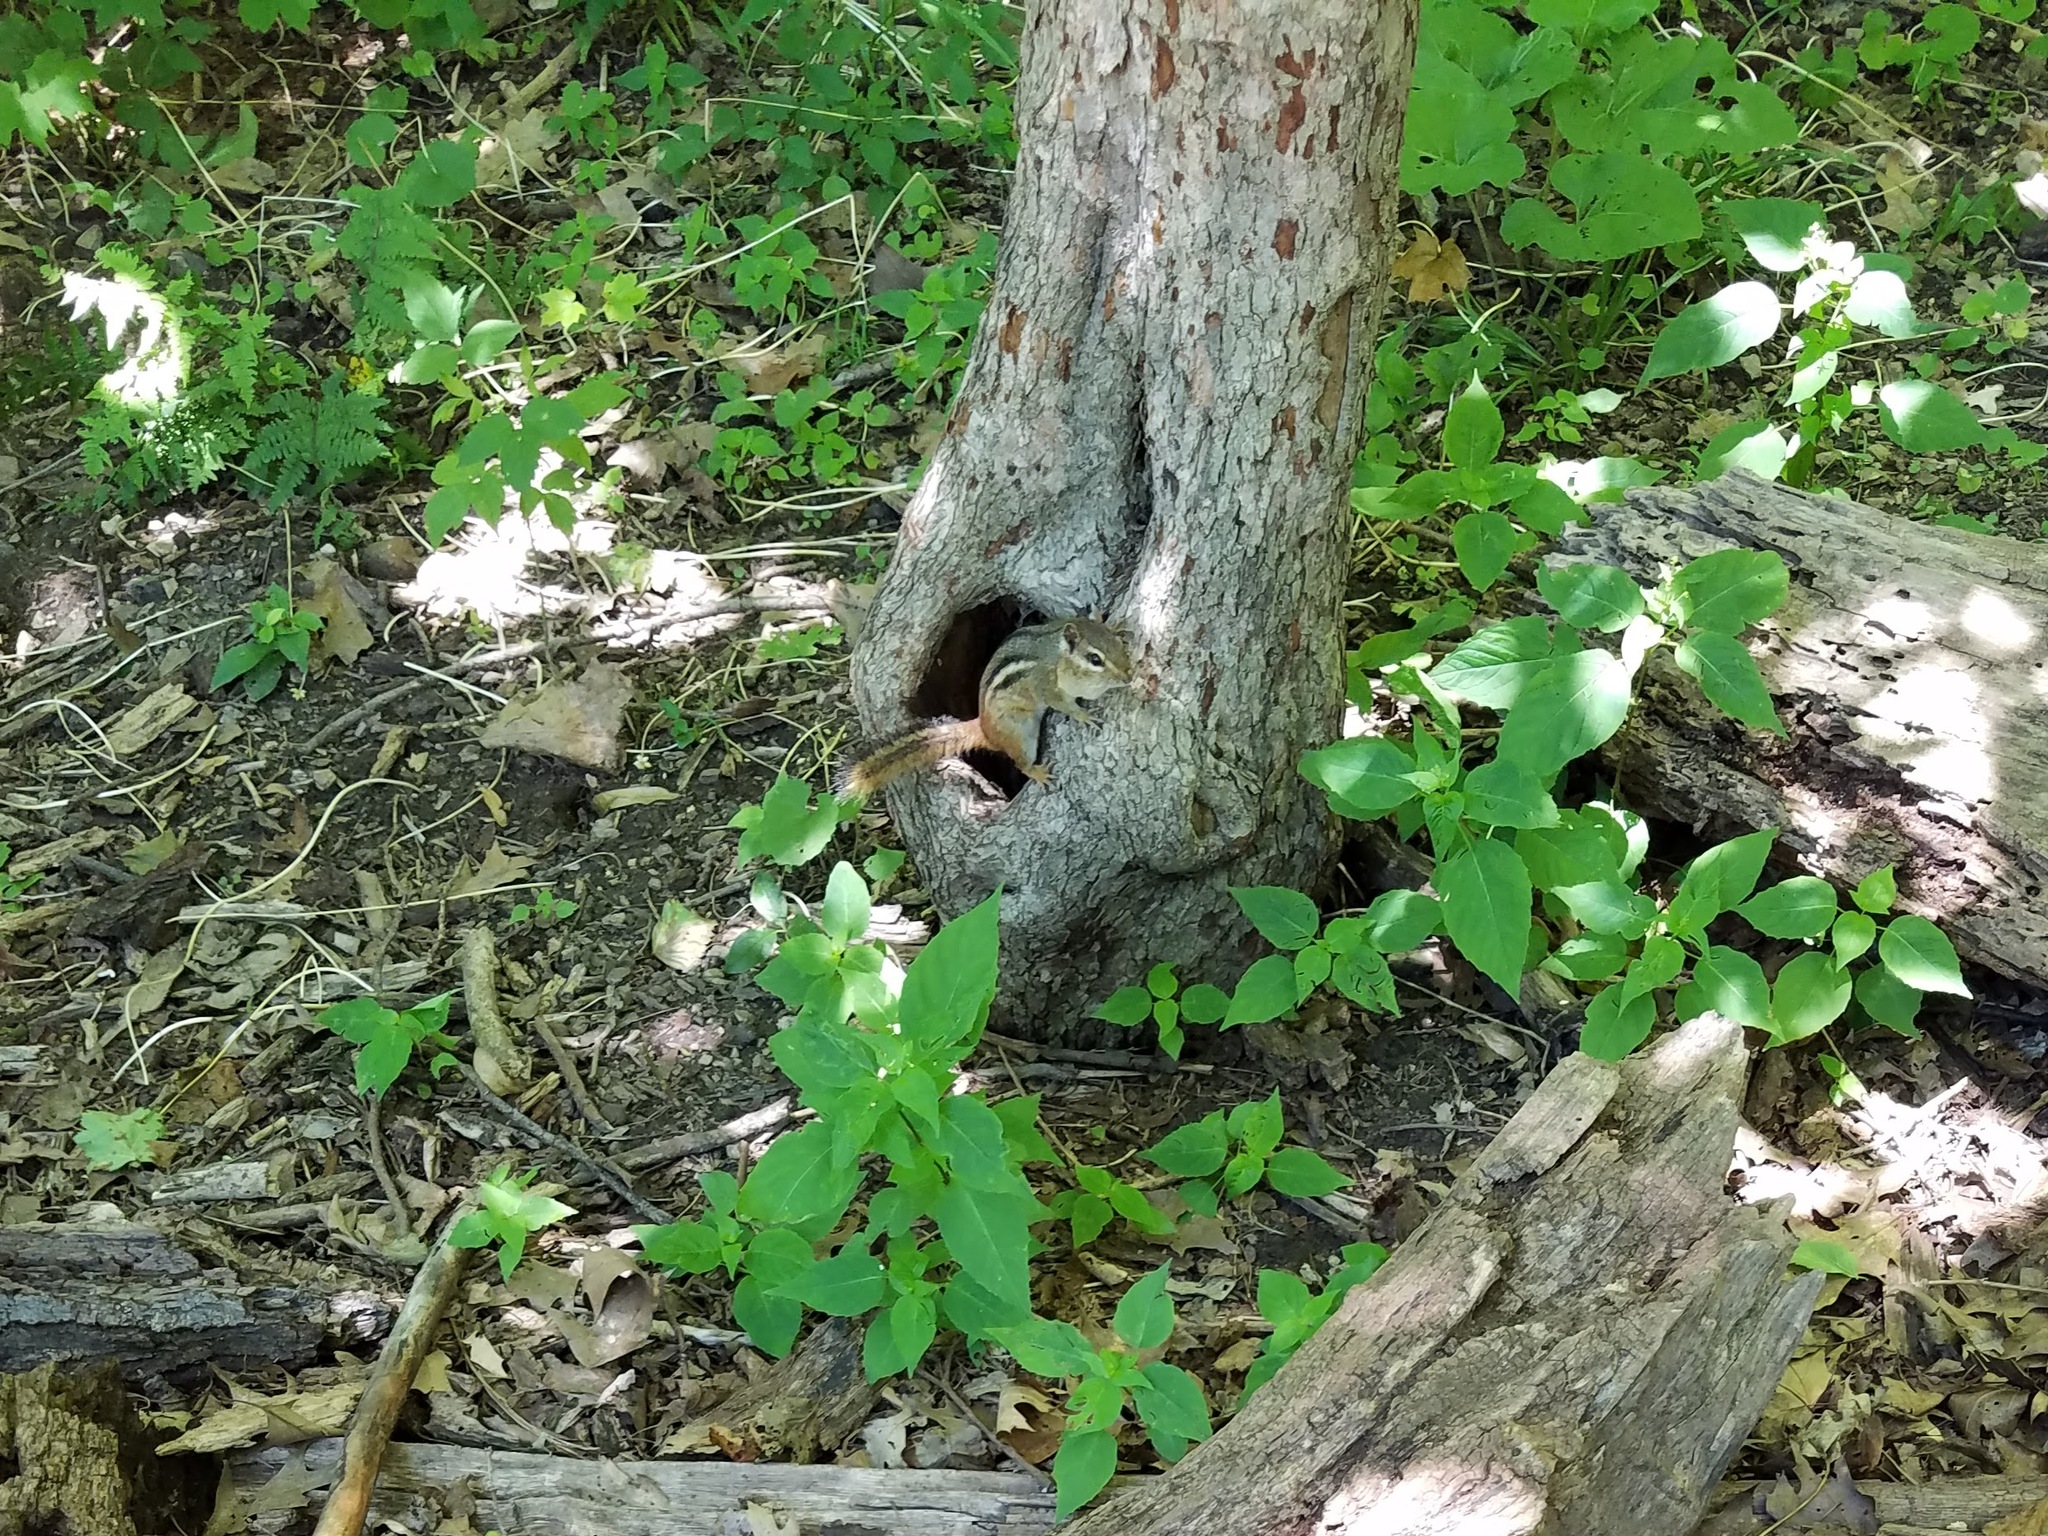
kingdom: Animalia
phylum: Chordata
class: Mammalia
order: Rodentia
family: Sciuridae
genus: Tamias
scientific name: Tamias striatus
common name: Eastern chipmunk
